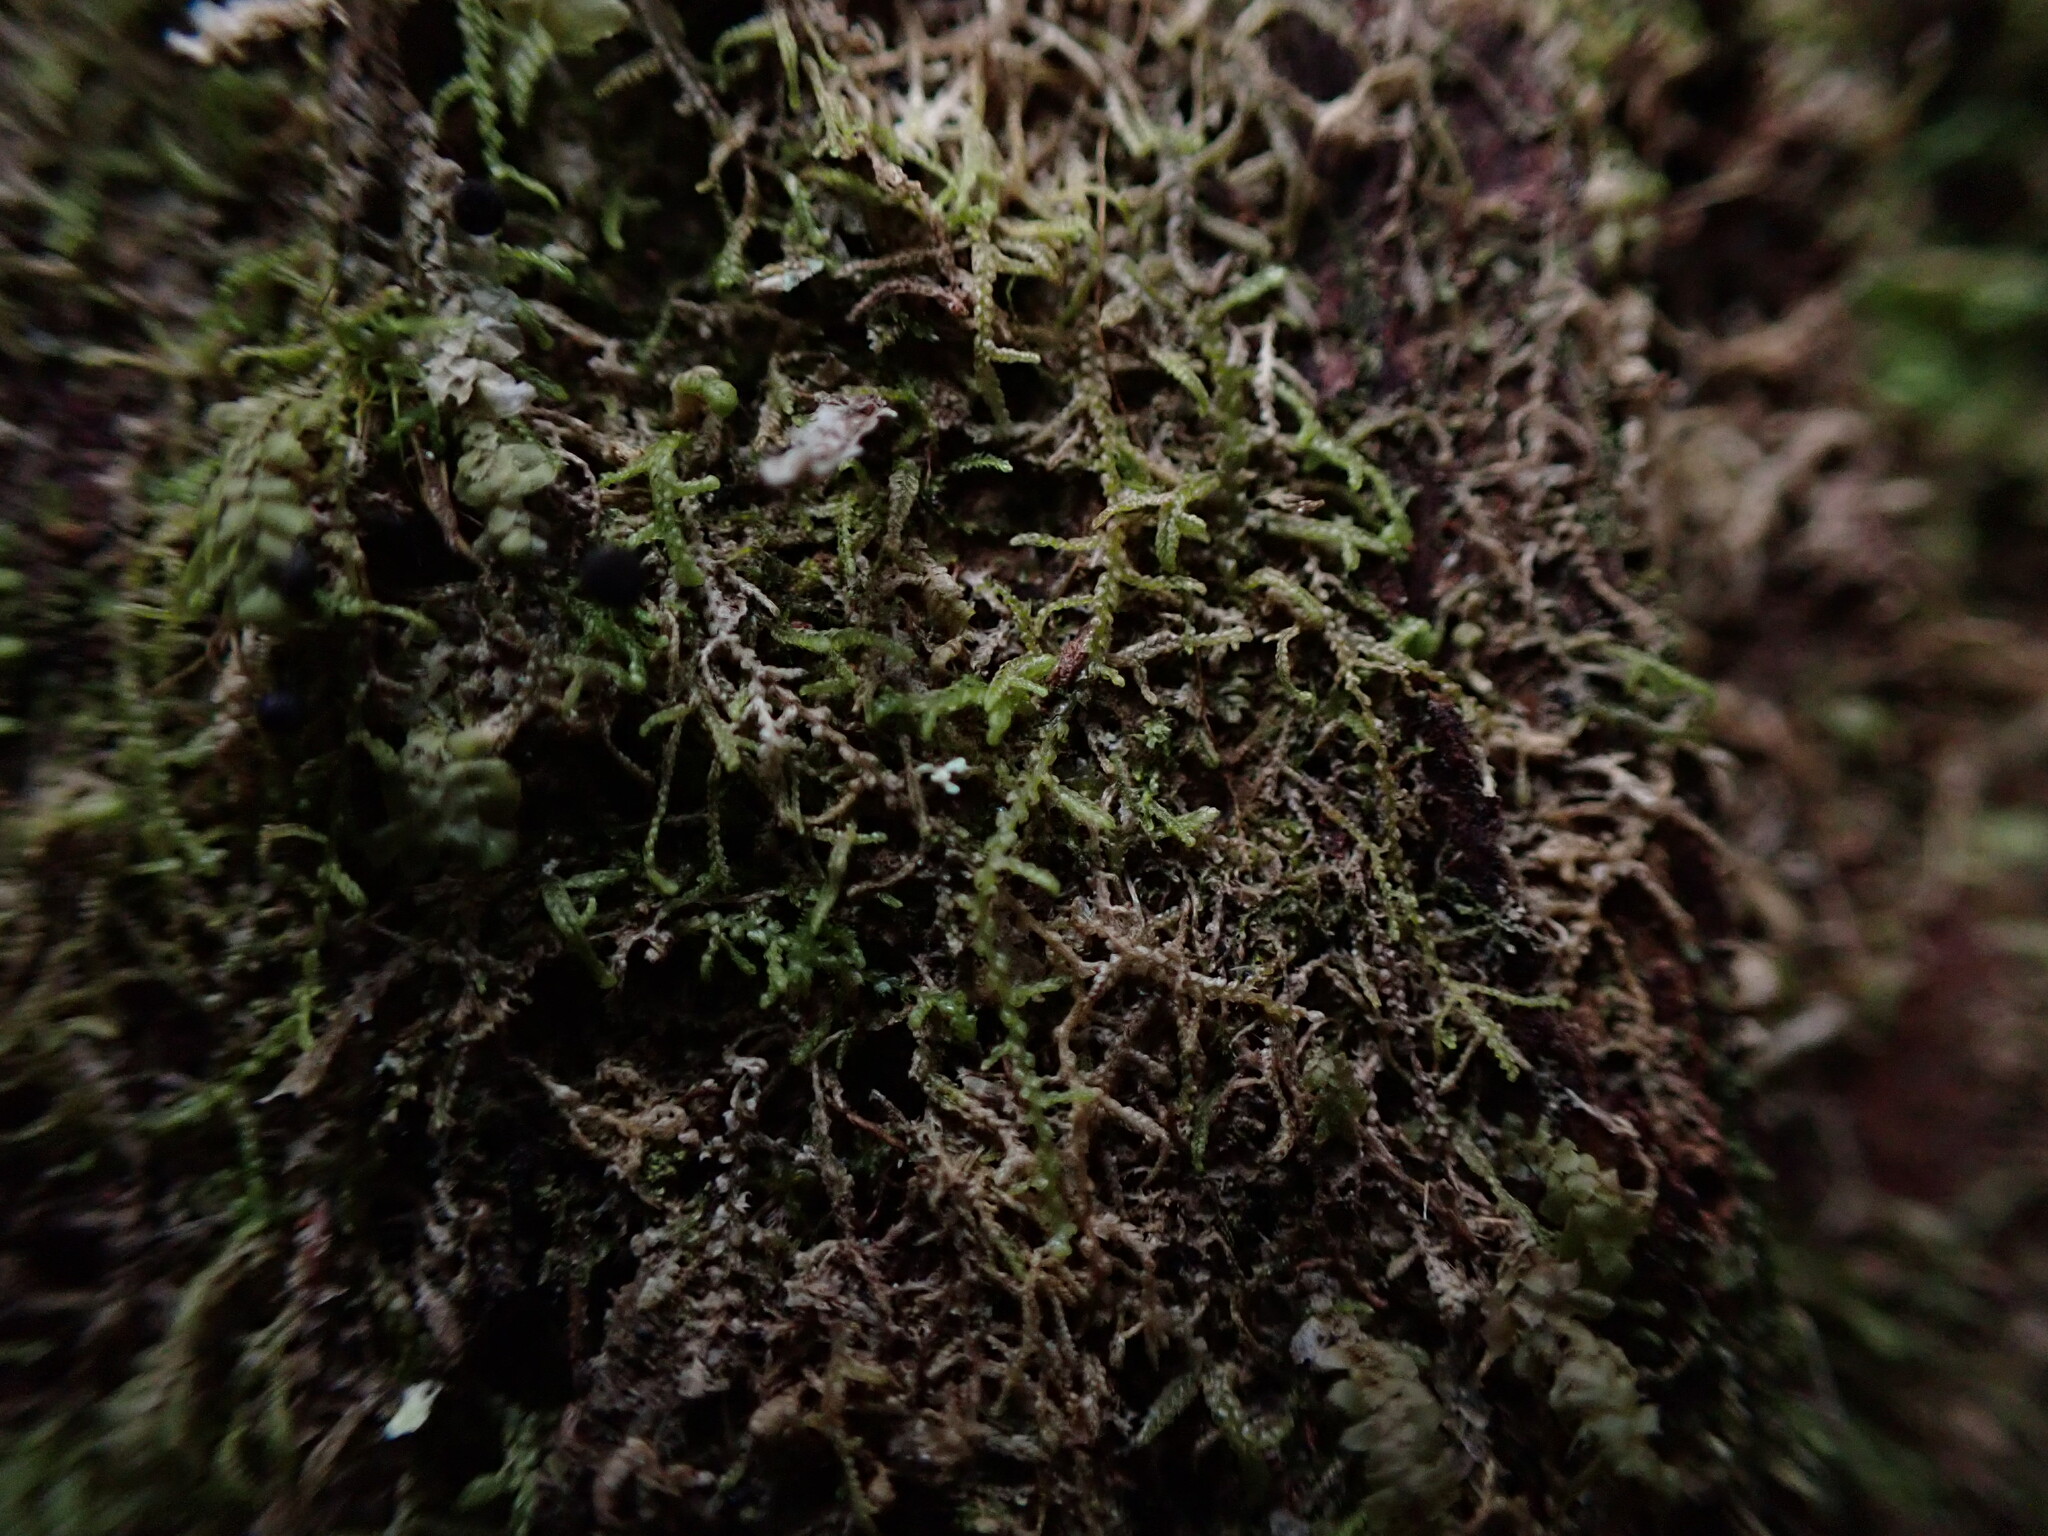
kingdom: Plantae
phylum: Marchantiophyta
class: Jungermanniopsida
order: Jungermanniales
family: Lepidoziaceae
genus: Lepidozia
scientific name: Lepidozia reptans
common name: Creeping fingerwort
